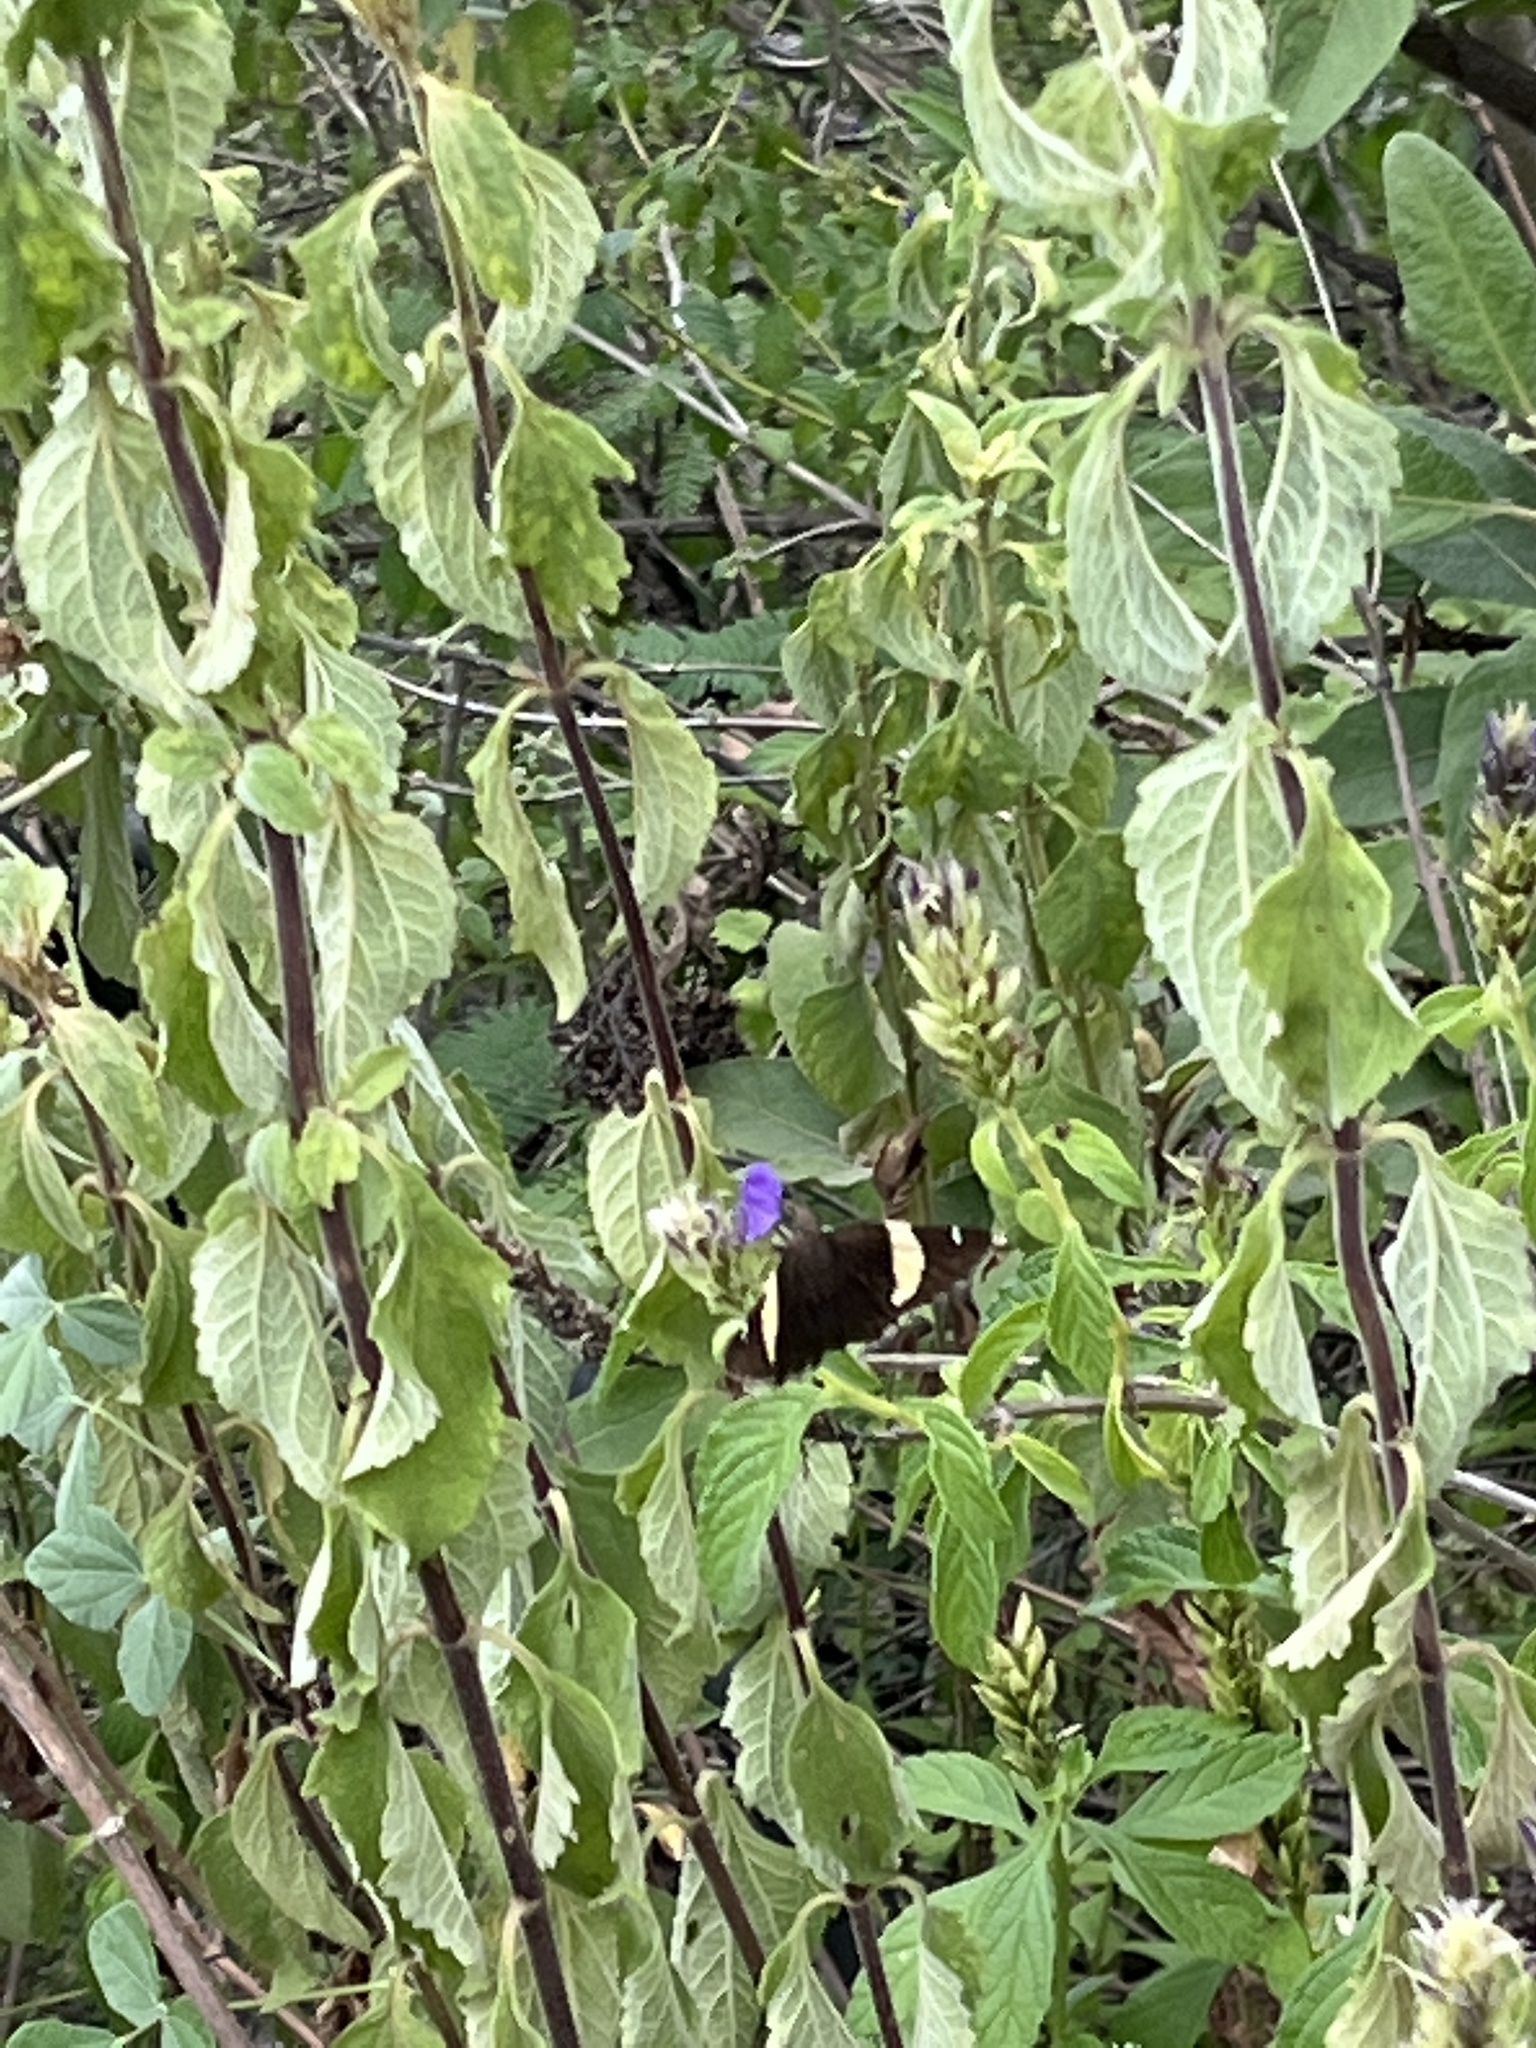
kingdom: Animalia
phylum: Arthropoda
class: Arachnida
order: Scorpiones
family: Bothriuridae
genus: Telegonus
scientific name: Telegonus cellus
